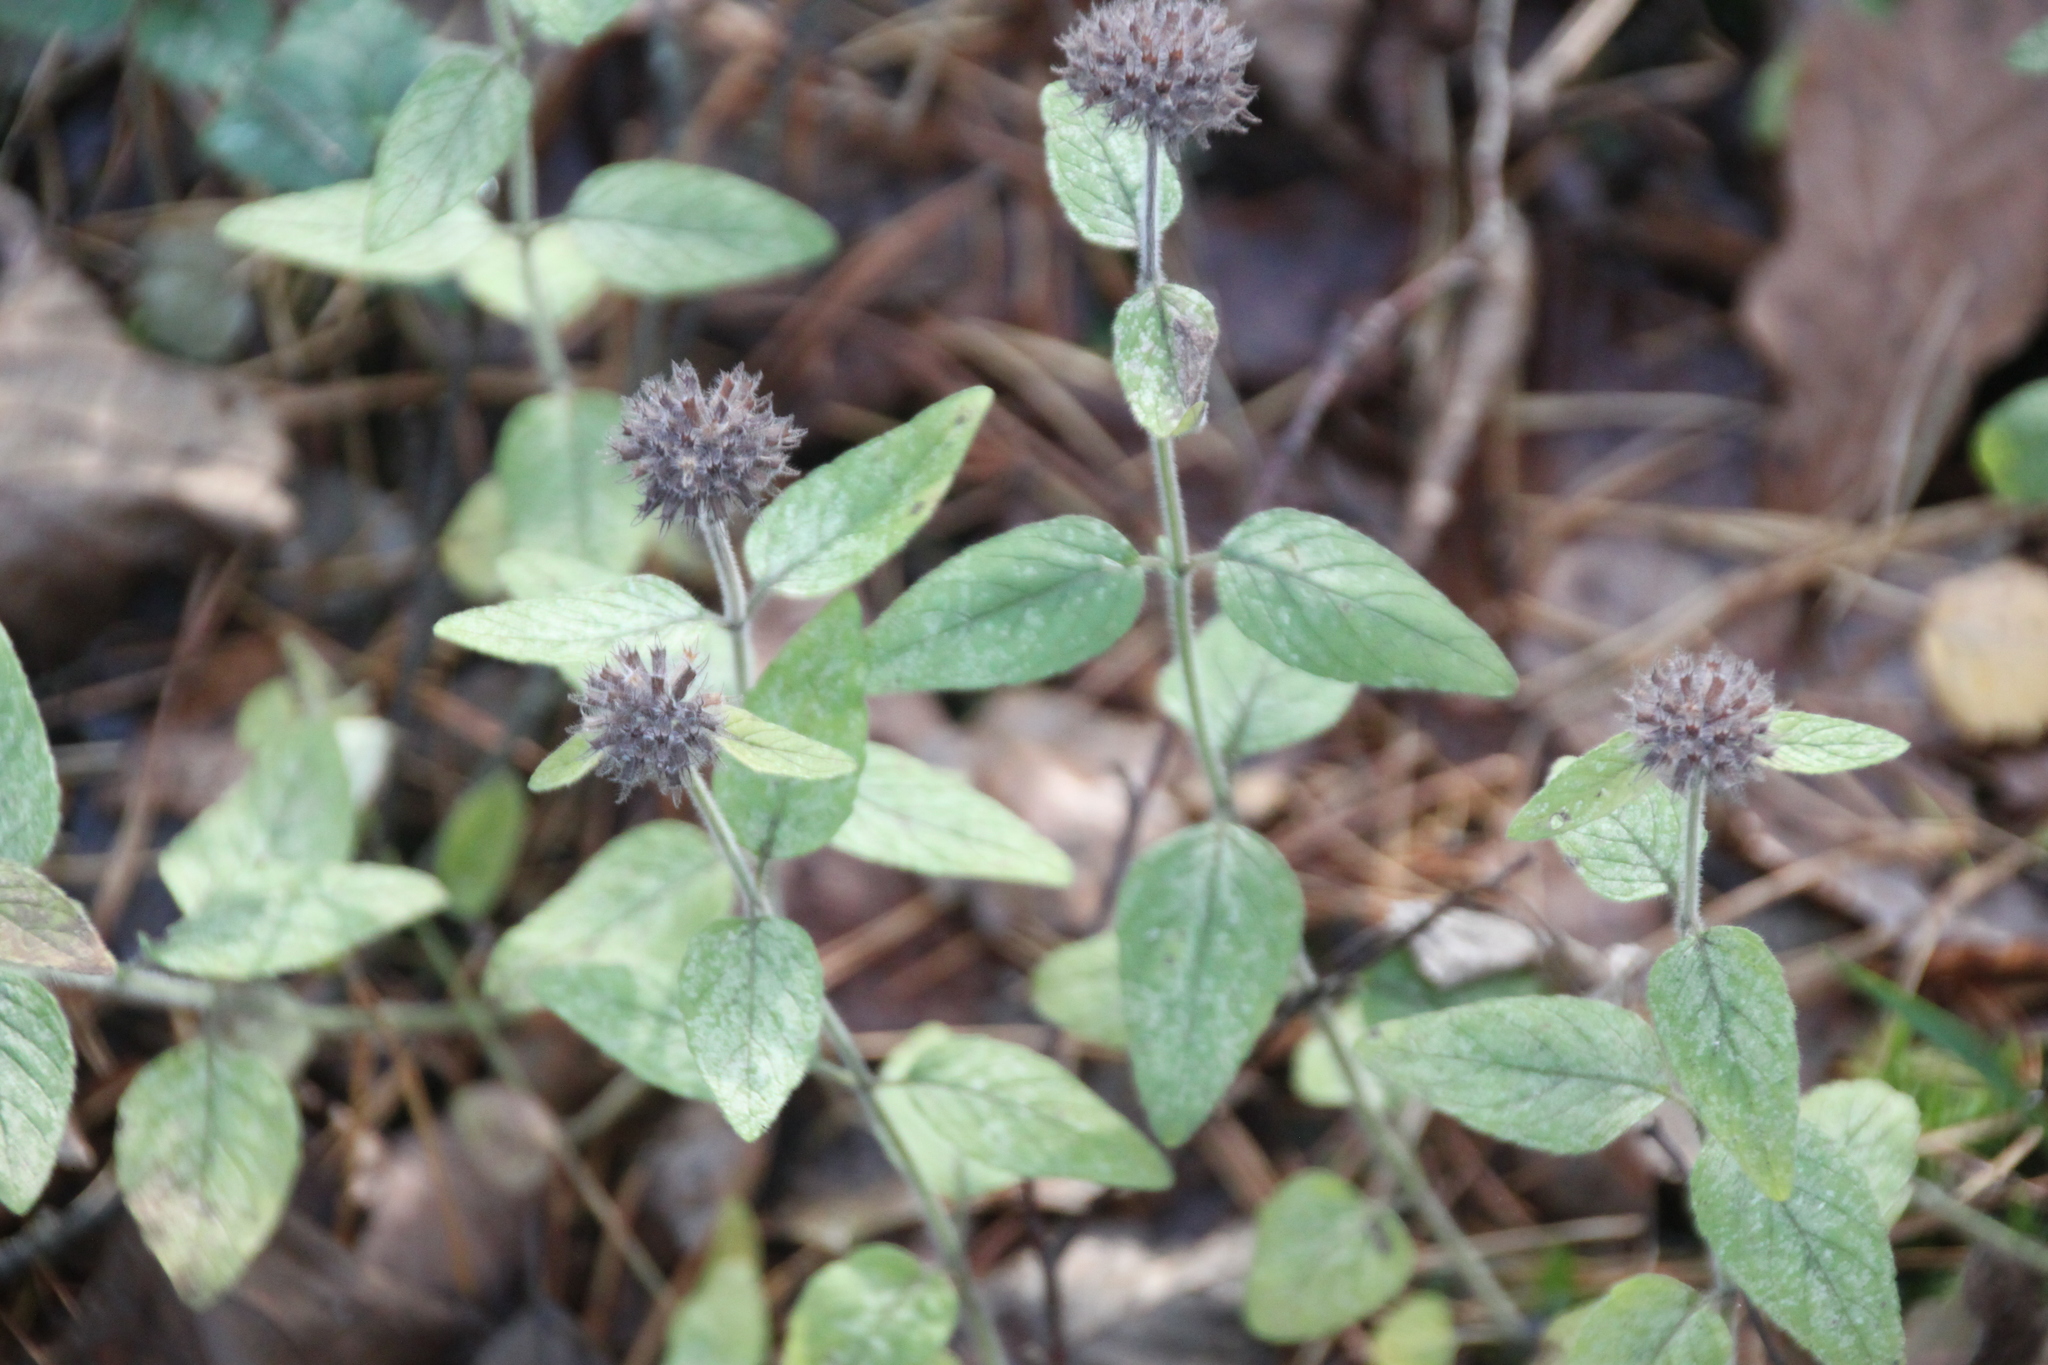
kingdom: Plantae
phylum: Tracheophyta
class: Magnoliopsida
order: Lamiales
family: Lamiaceae
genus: Clinopodium
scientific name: Clinopodium vulgare
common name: Wild basil
